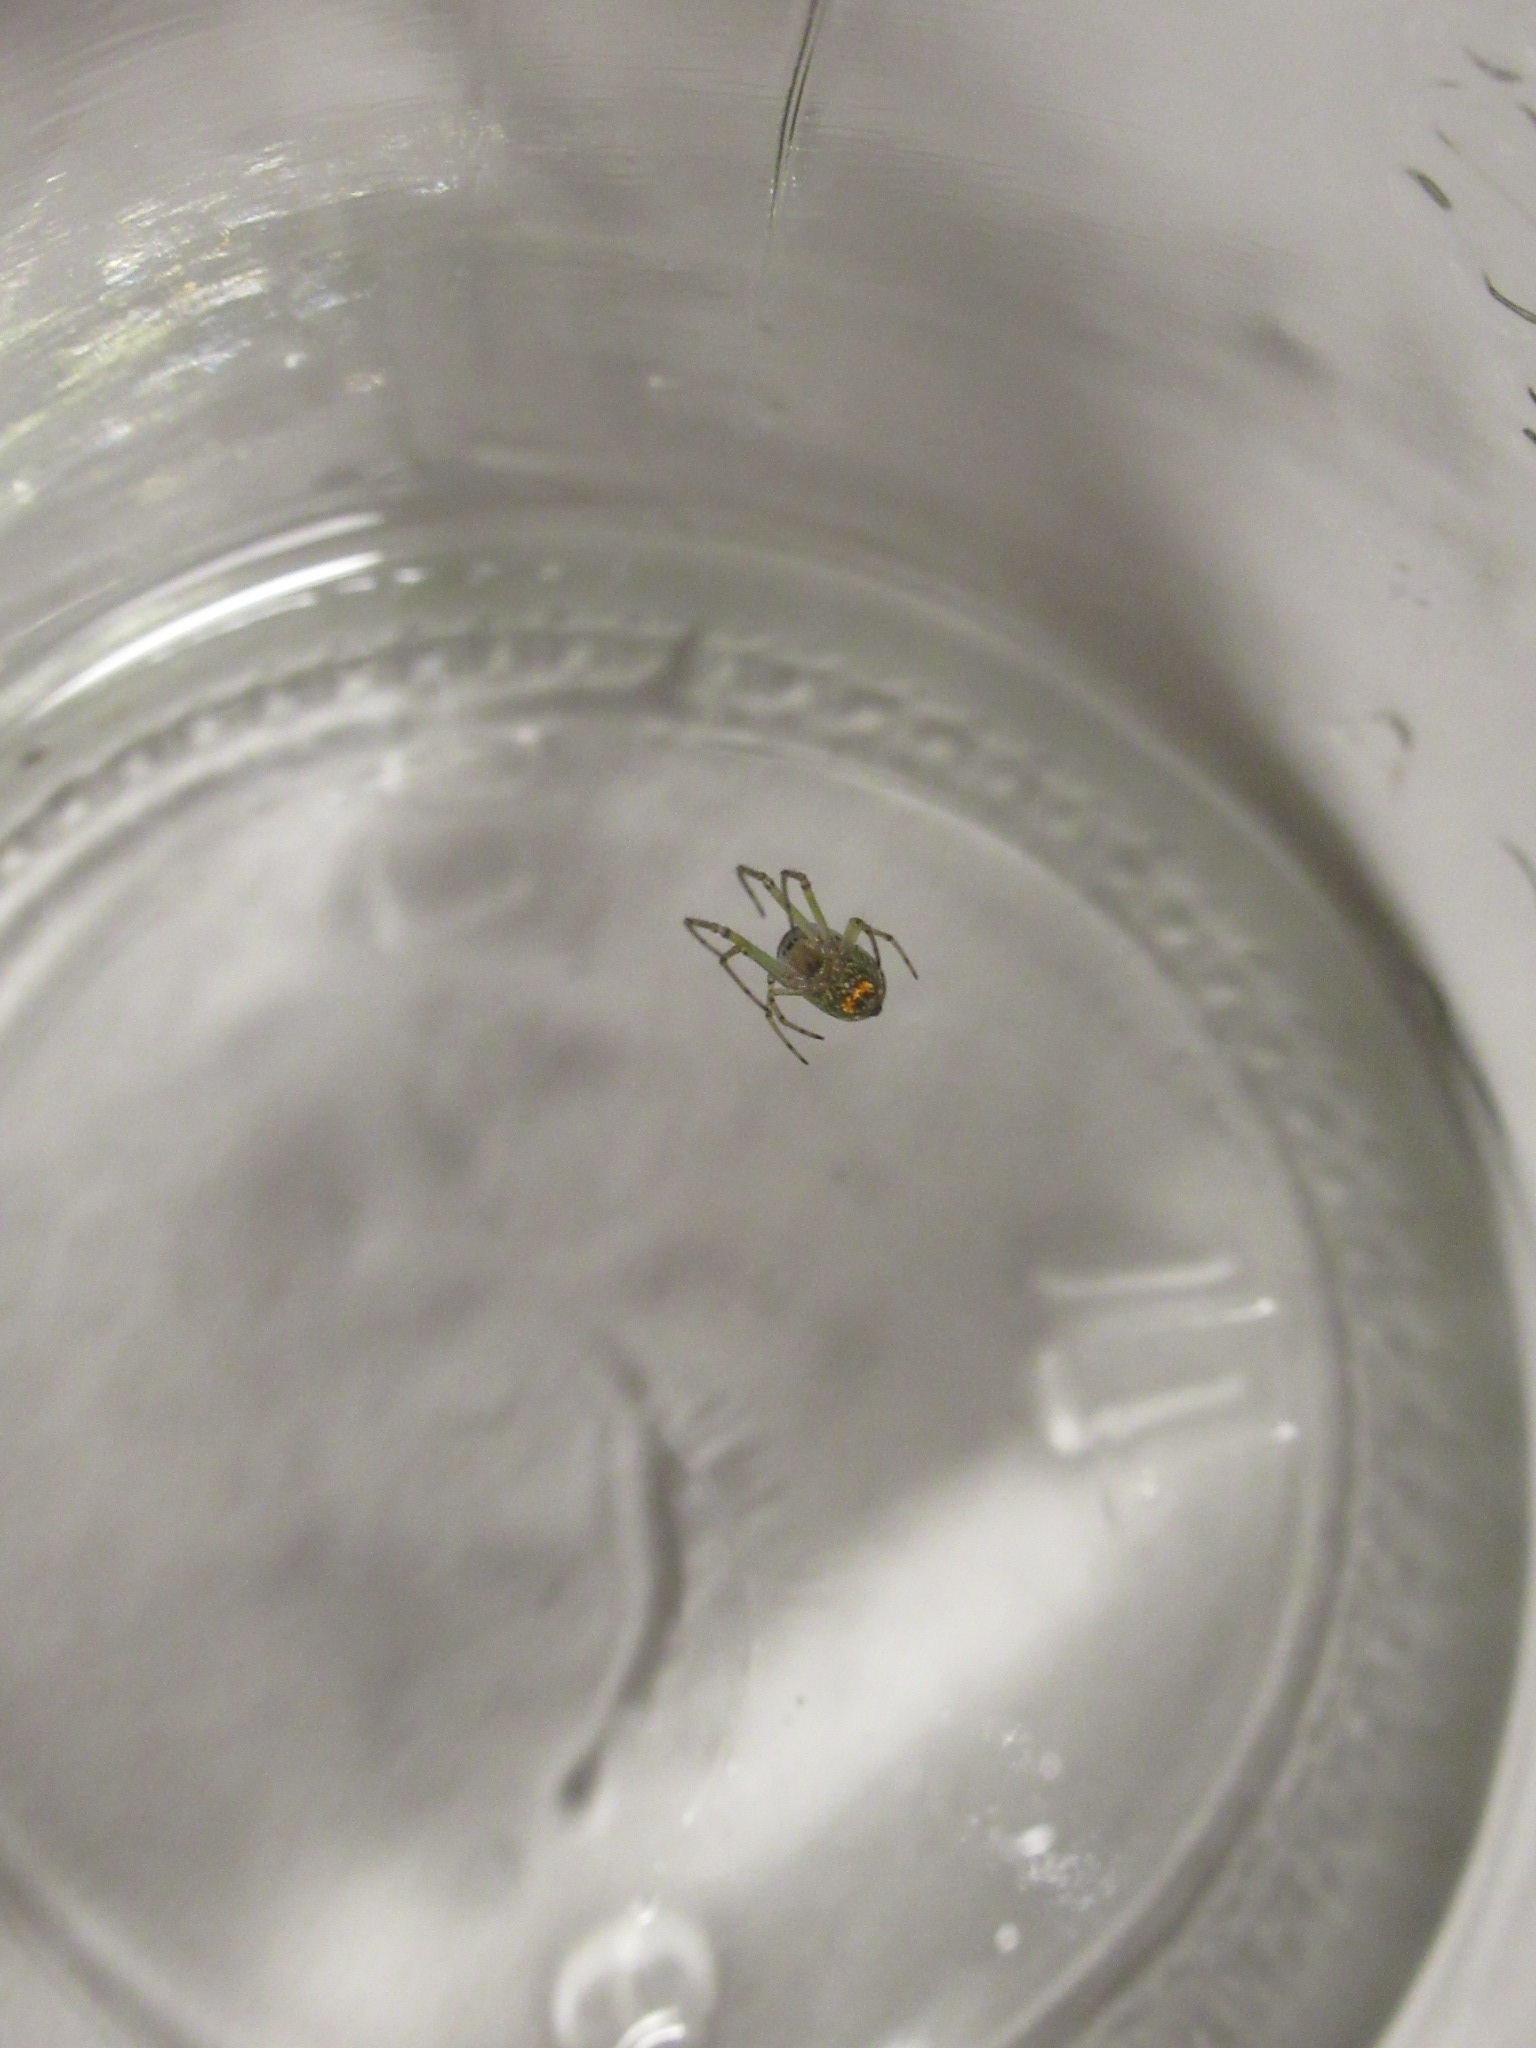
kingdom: Animalia
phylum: Arthropoda
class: Arachnida
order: Araneae
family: Tetragnathidae
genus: Leucauge
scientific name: Leucauge venusta
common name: Longjawed orb weavers
